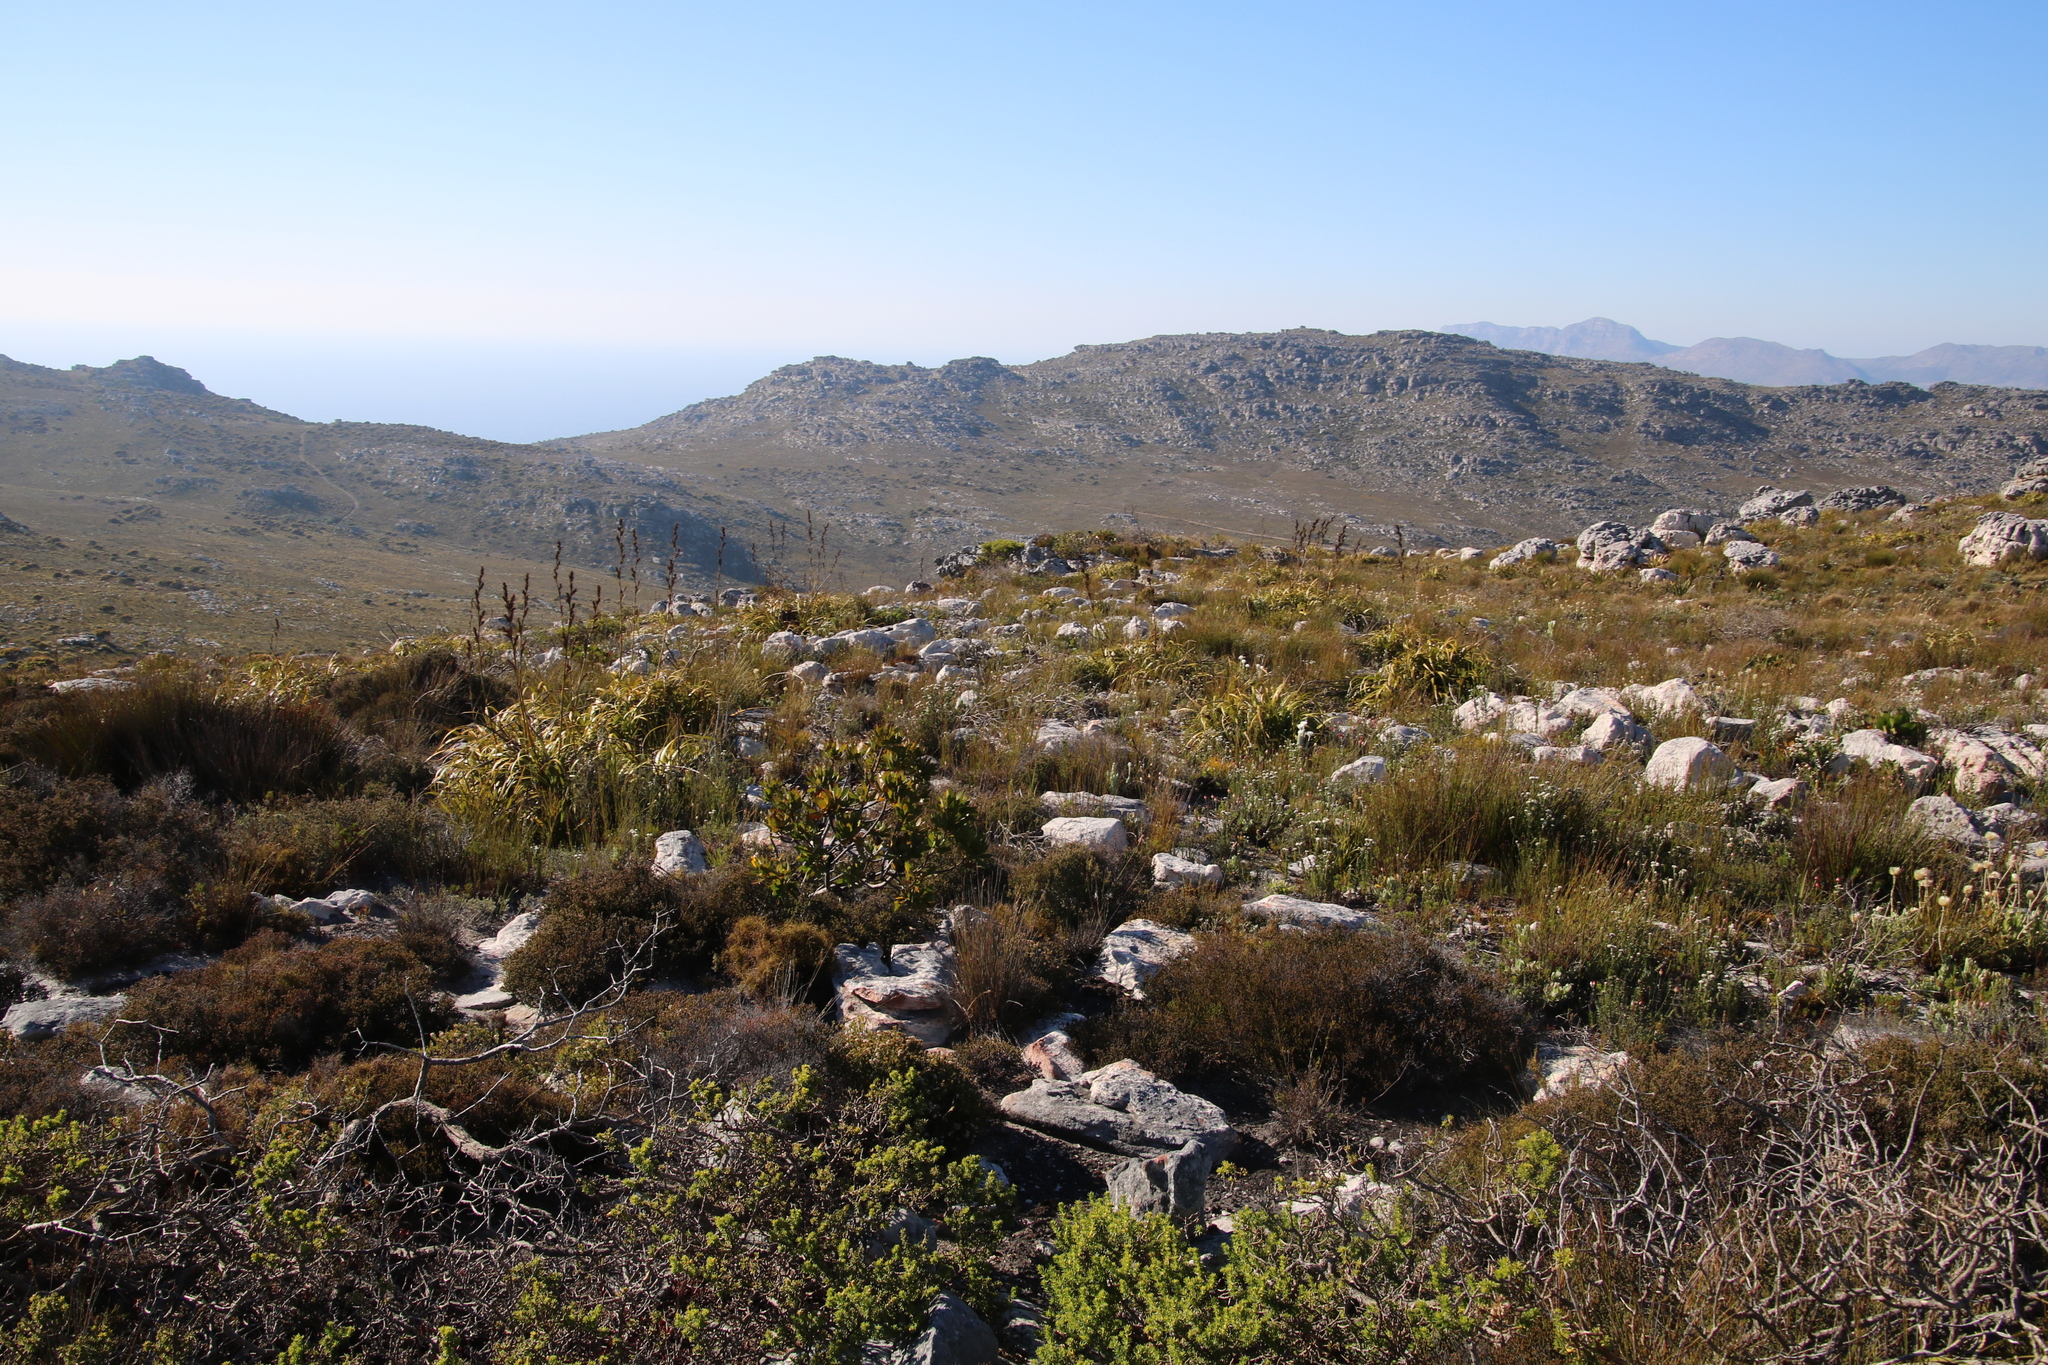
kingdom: Plantae
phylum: Tracheophyta
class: Liliopsida
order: Poales
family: Cyperaceae
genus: Tetraria
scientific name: Tetraria thermalis
